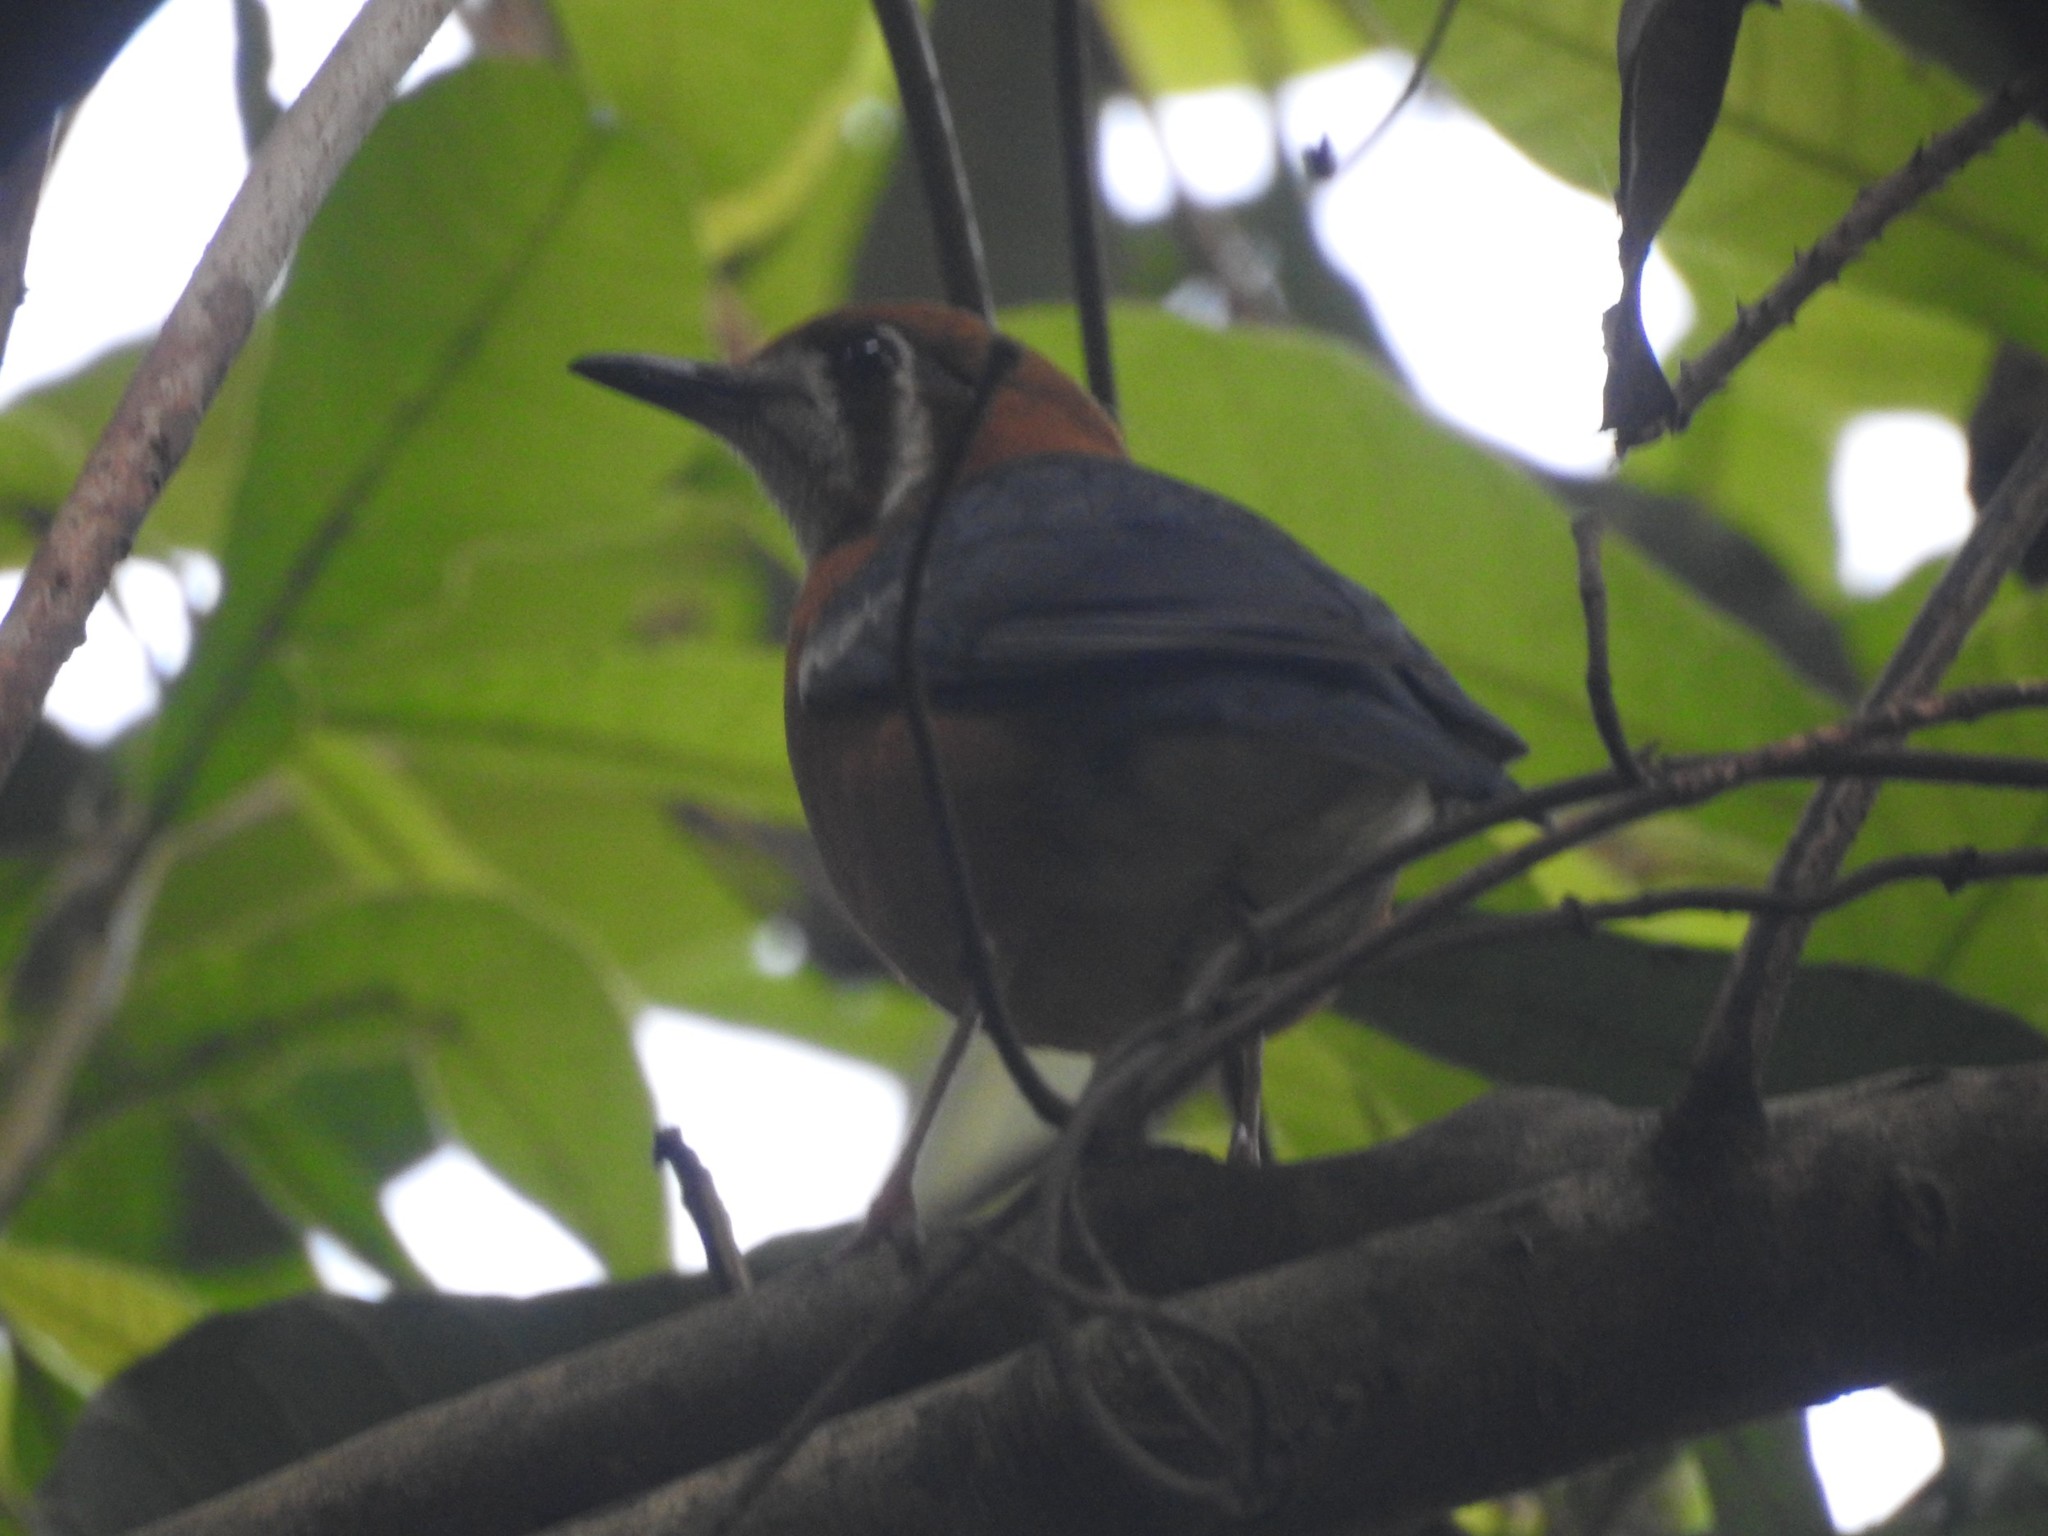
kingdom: Animalia
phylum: Chordata
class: Aves
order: Passeriformes
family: Turdidae
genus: Geokichla
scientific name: Geokichla citrina
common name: Orange-headed thrush
